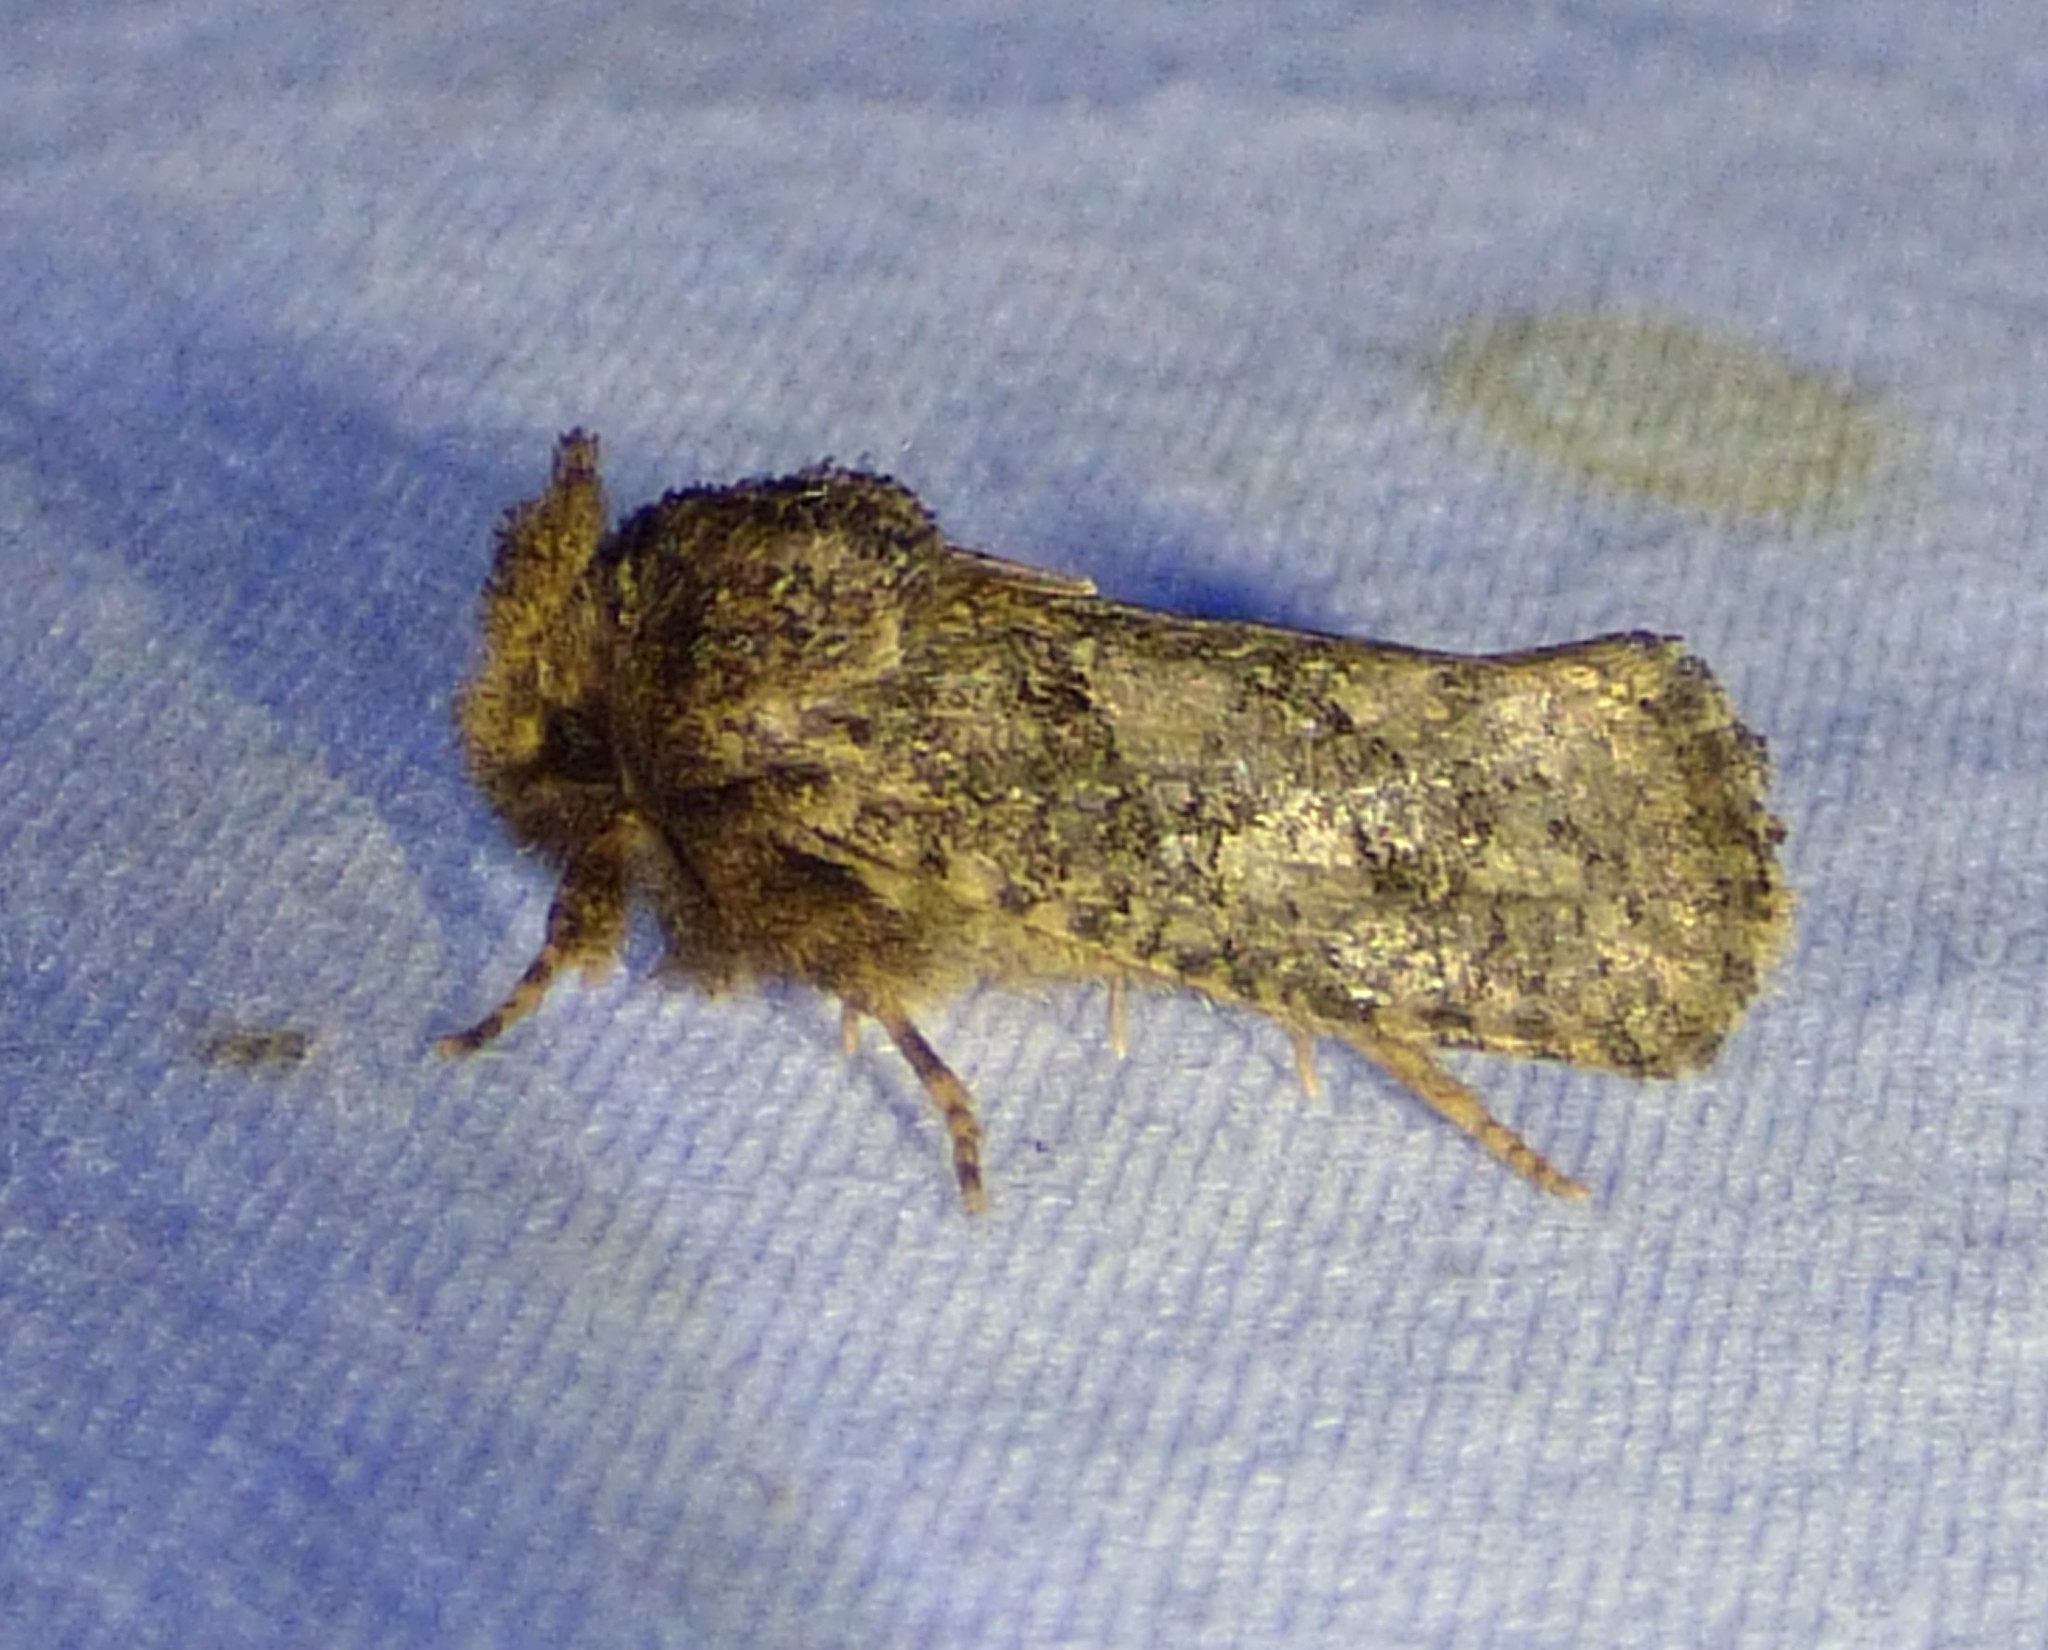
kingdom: Animalia
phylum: Arthropoda
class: Insecta
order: Lepidoptera
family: Tineidae
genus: Acrolophus
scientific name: Acrolophus arcanella
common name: Arcane grass tubeworm moth
